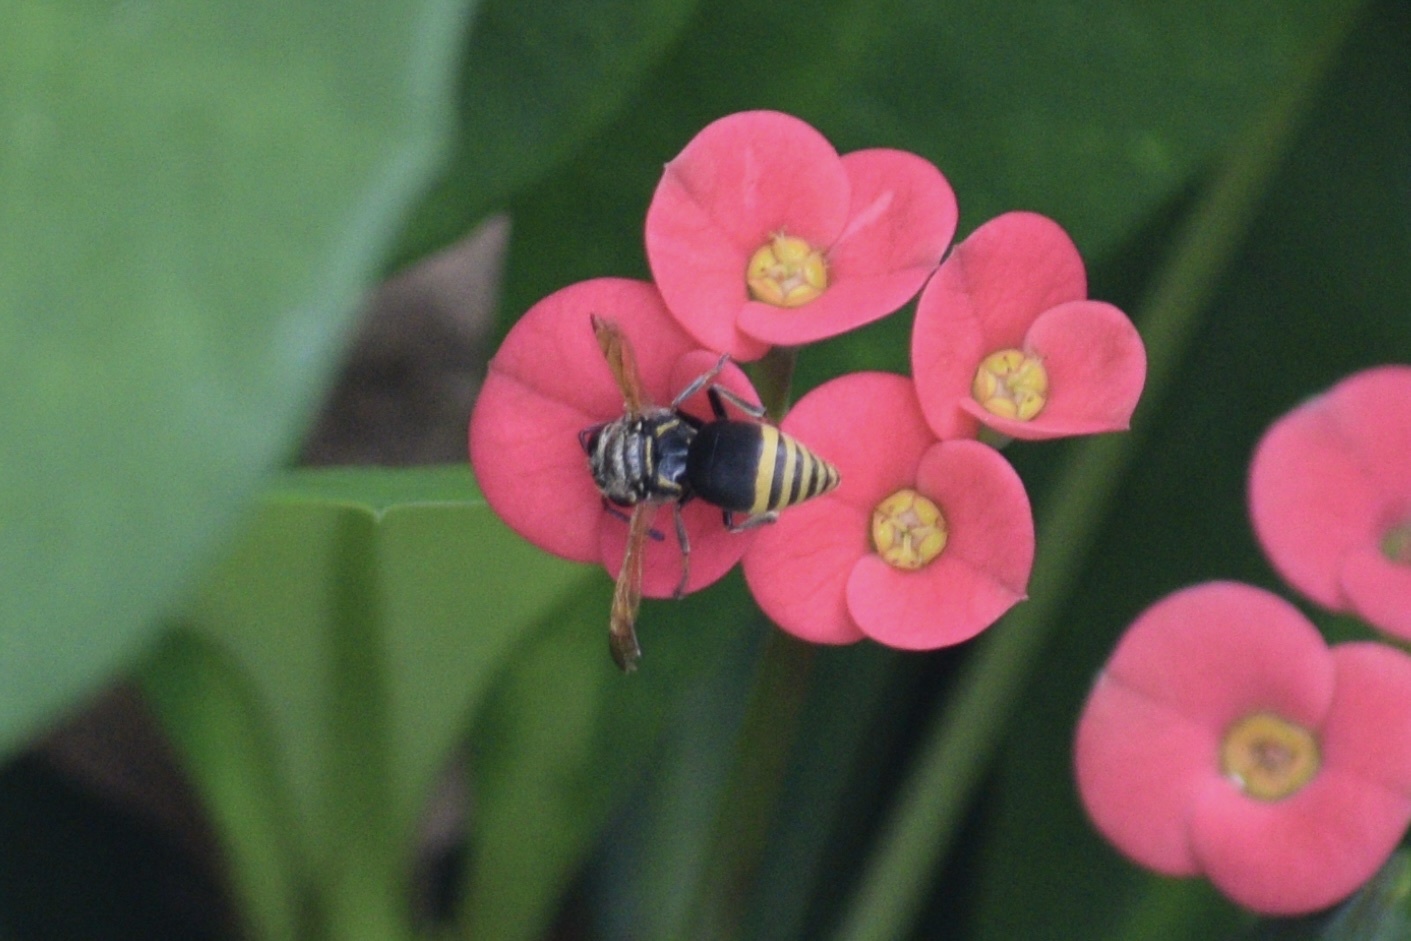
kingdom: Animalia
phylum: Arthropoda
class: Insecta
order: Hymenoptera
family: Eumenidae
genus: Pachodynerus
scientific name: Pachodynerus nasidens
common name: Key hole wasp
